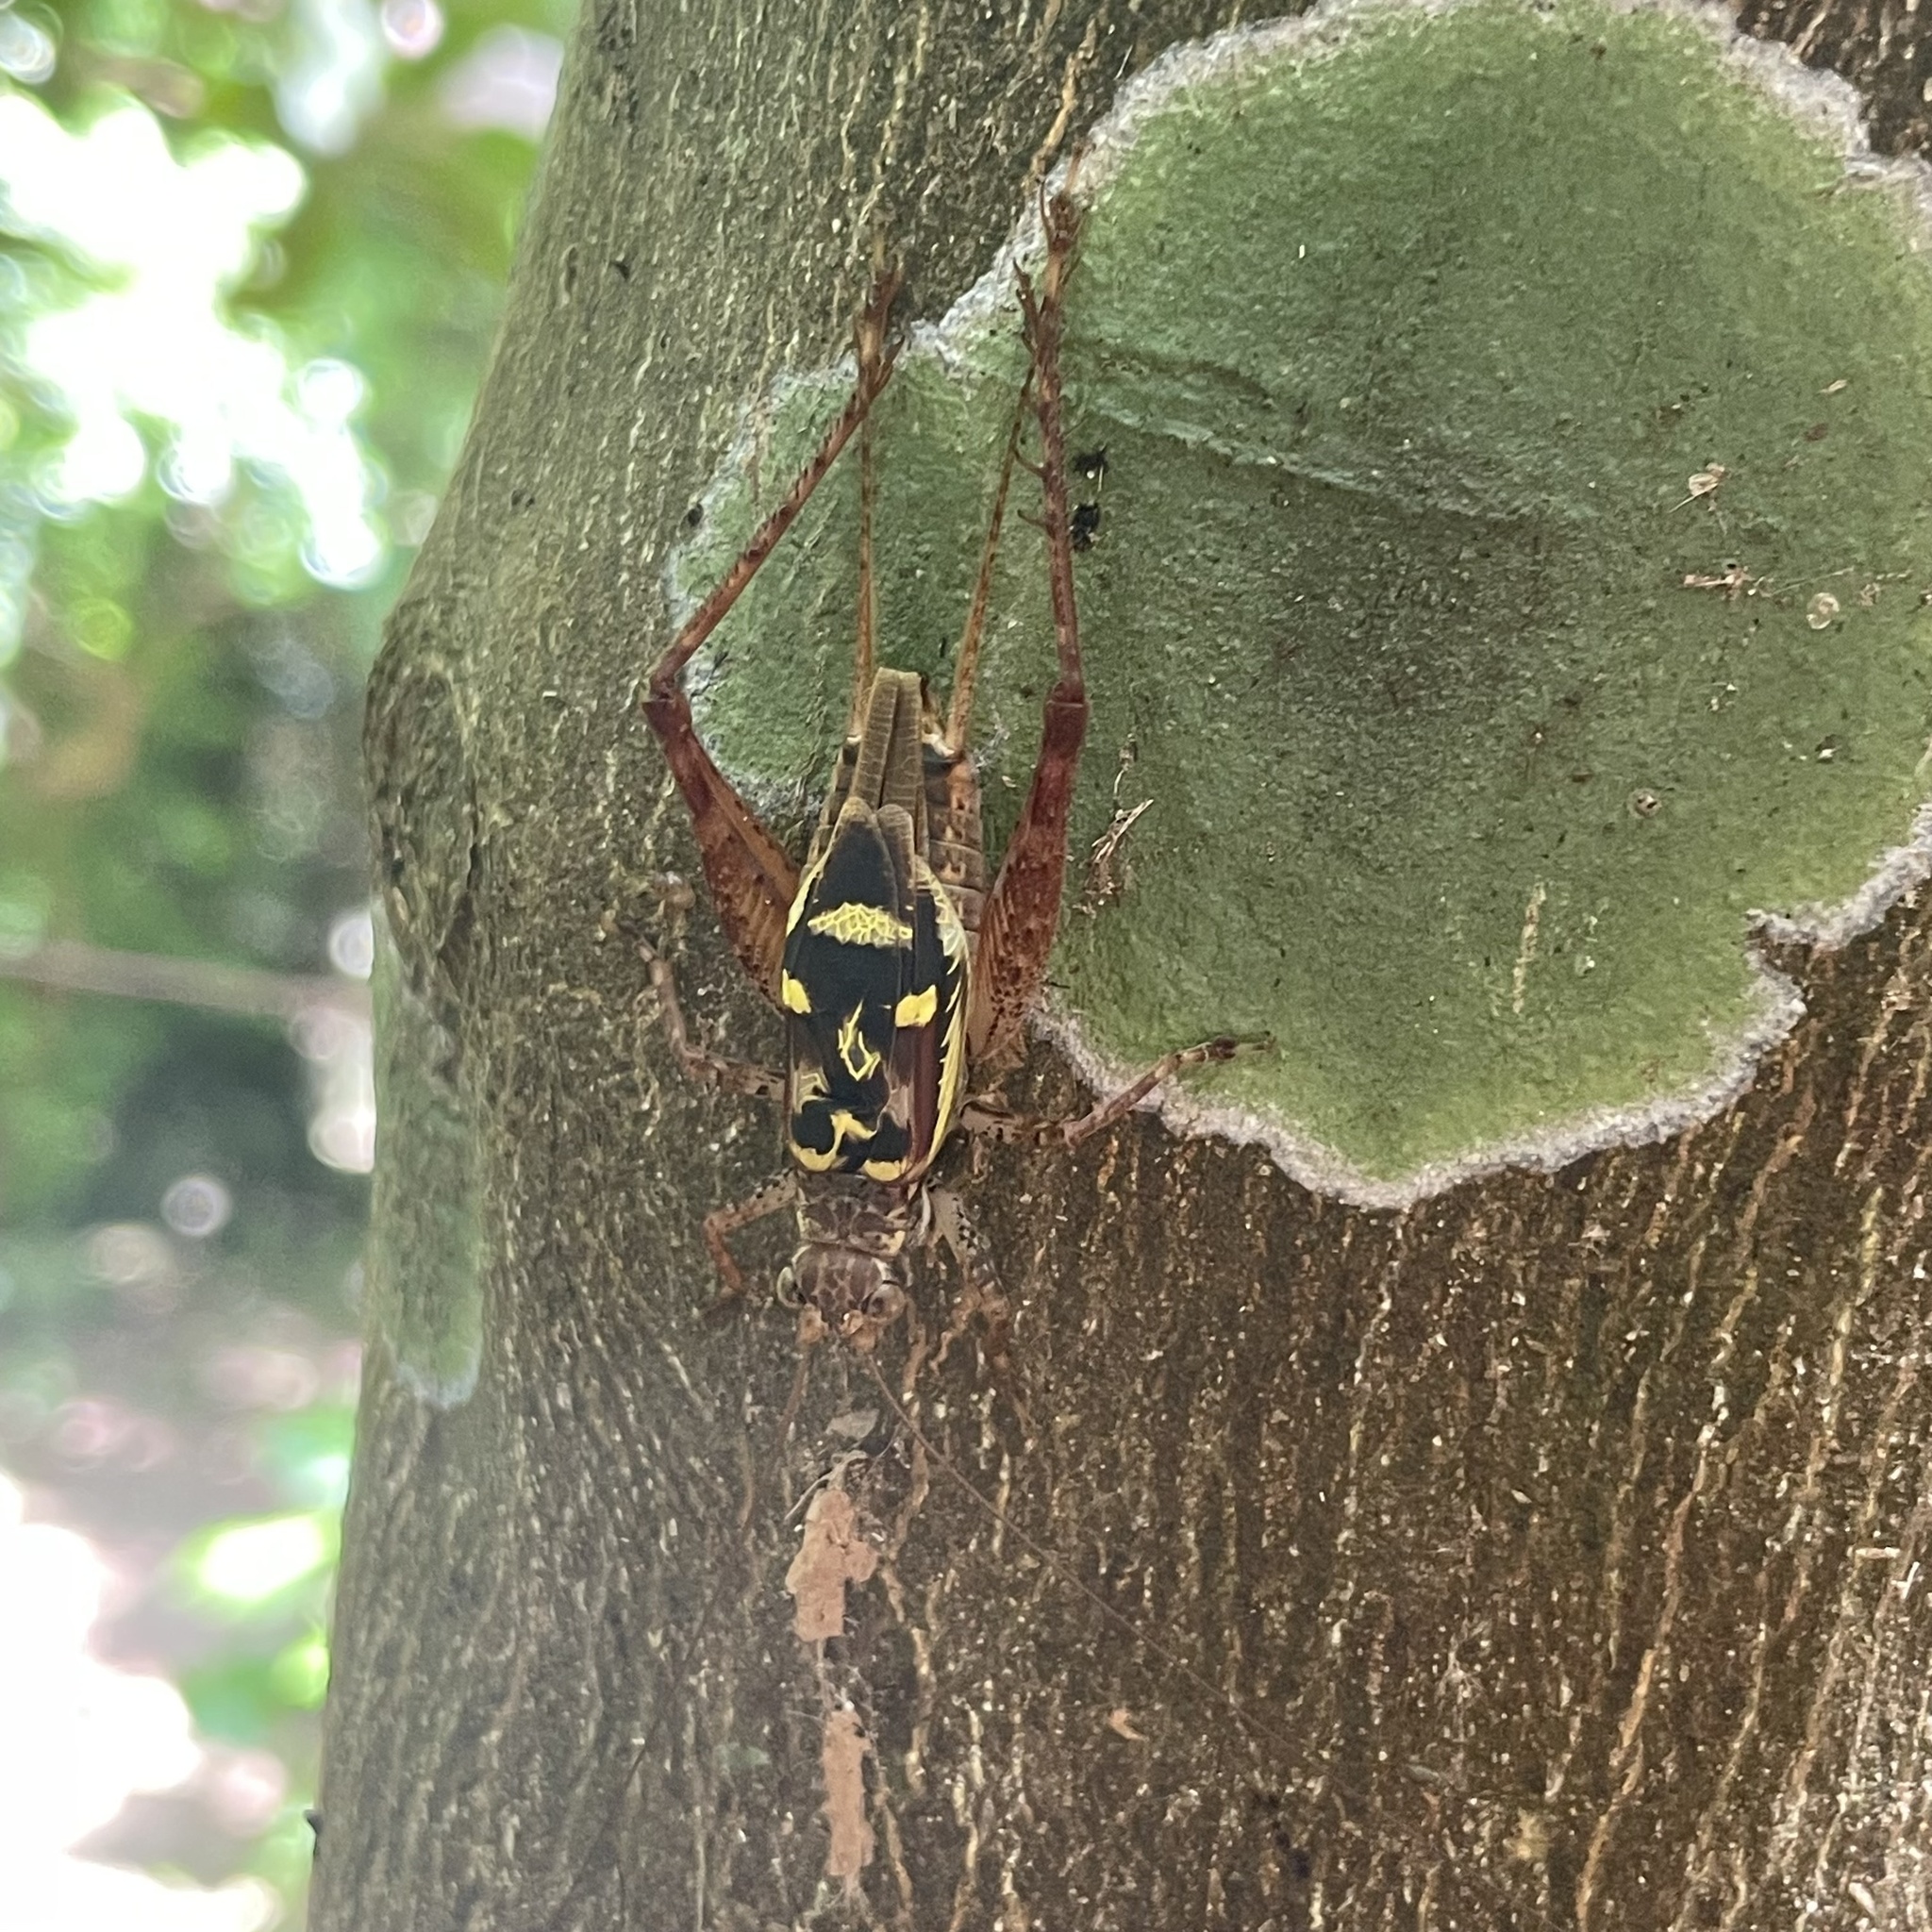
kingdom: Animalia
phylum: Arthropoda
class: Insecta
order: Orthoptera
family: Gryllidae
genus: Cardiodactylus
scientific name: Cardiodactylus guttulus
